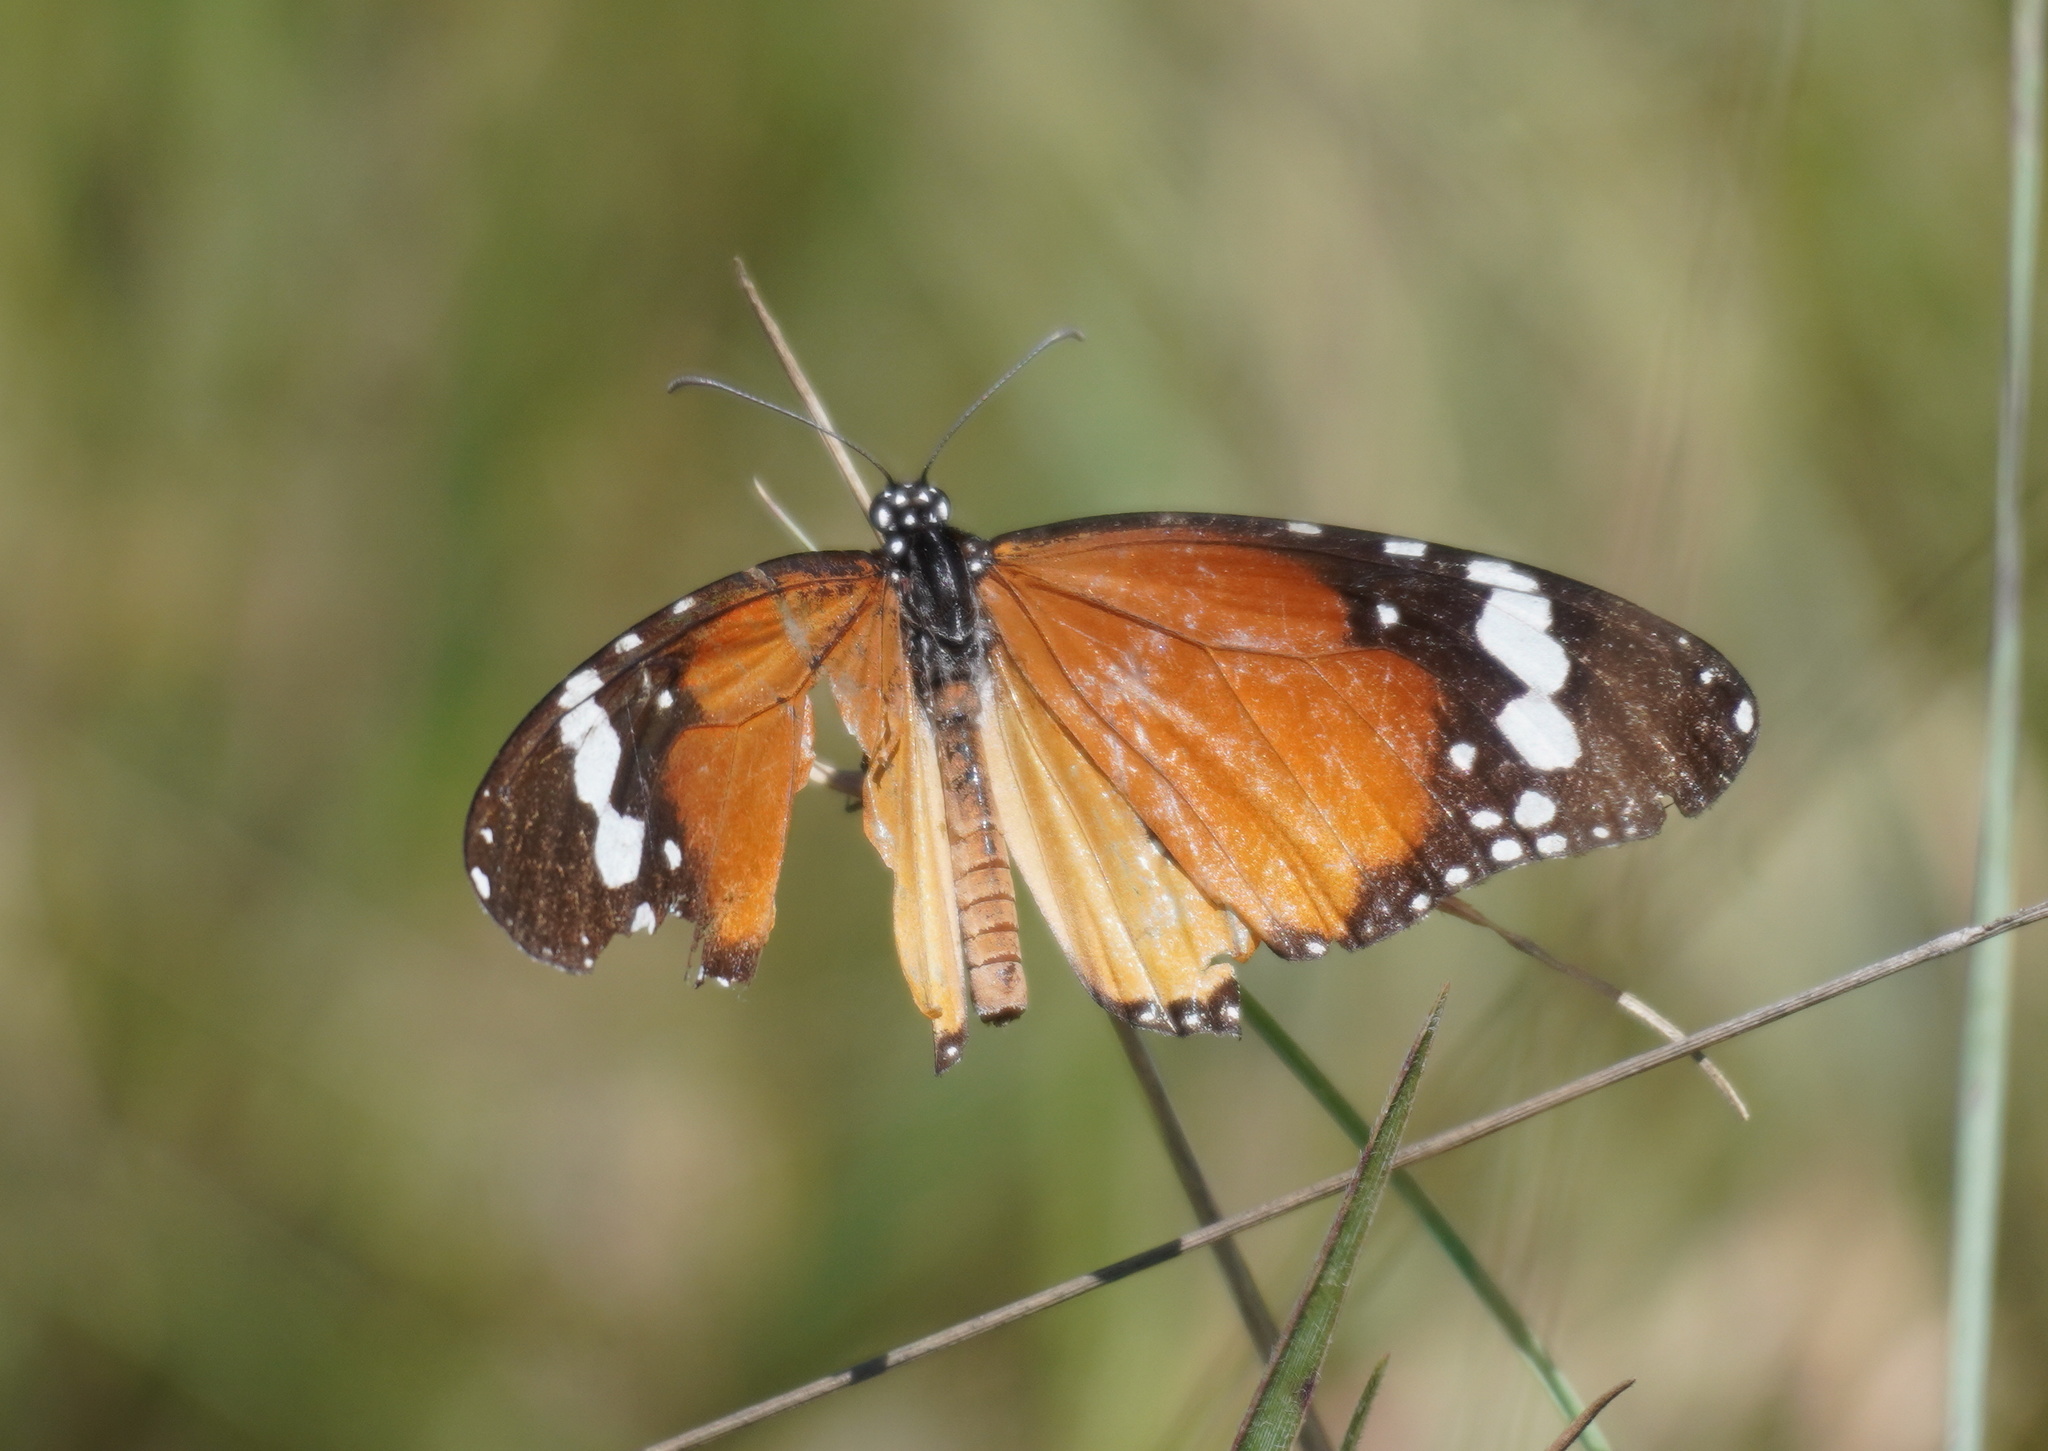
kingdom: Animalia
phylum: Arthropoda
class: Insecta
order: Lepidoptera
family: Nymphalidae
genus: Danaus
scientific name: Danaus chrysippus
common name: Plain tiger
